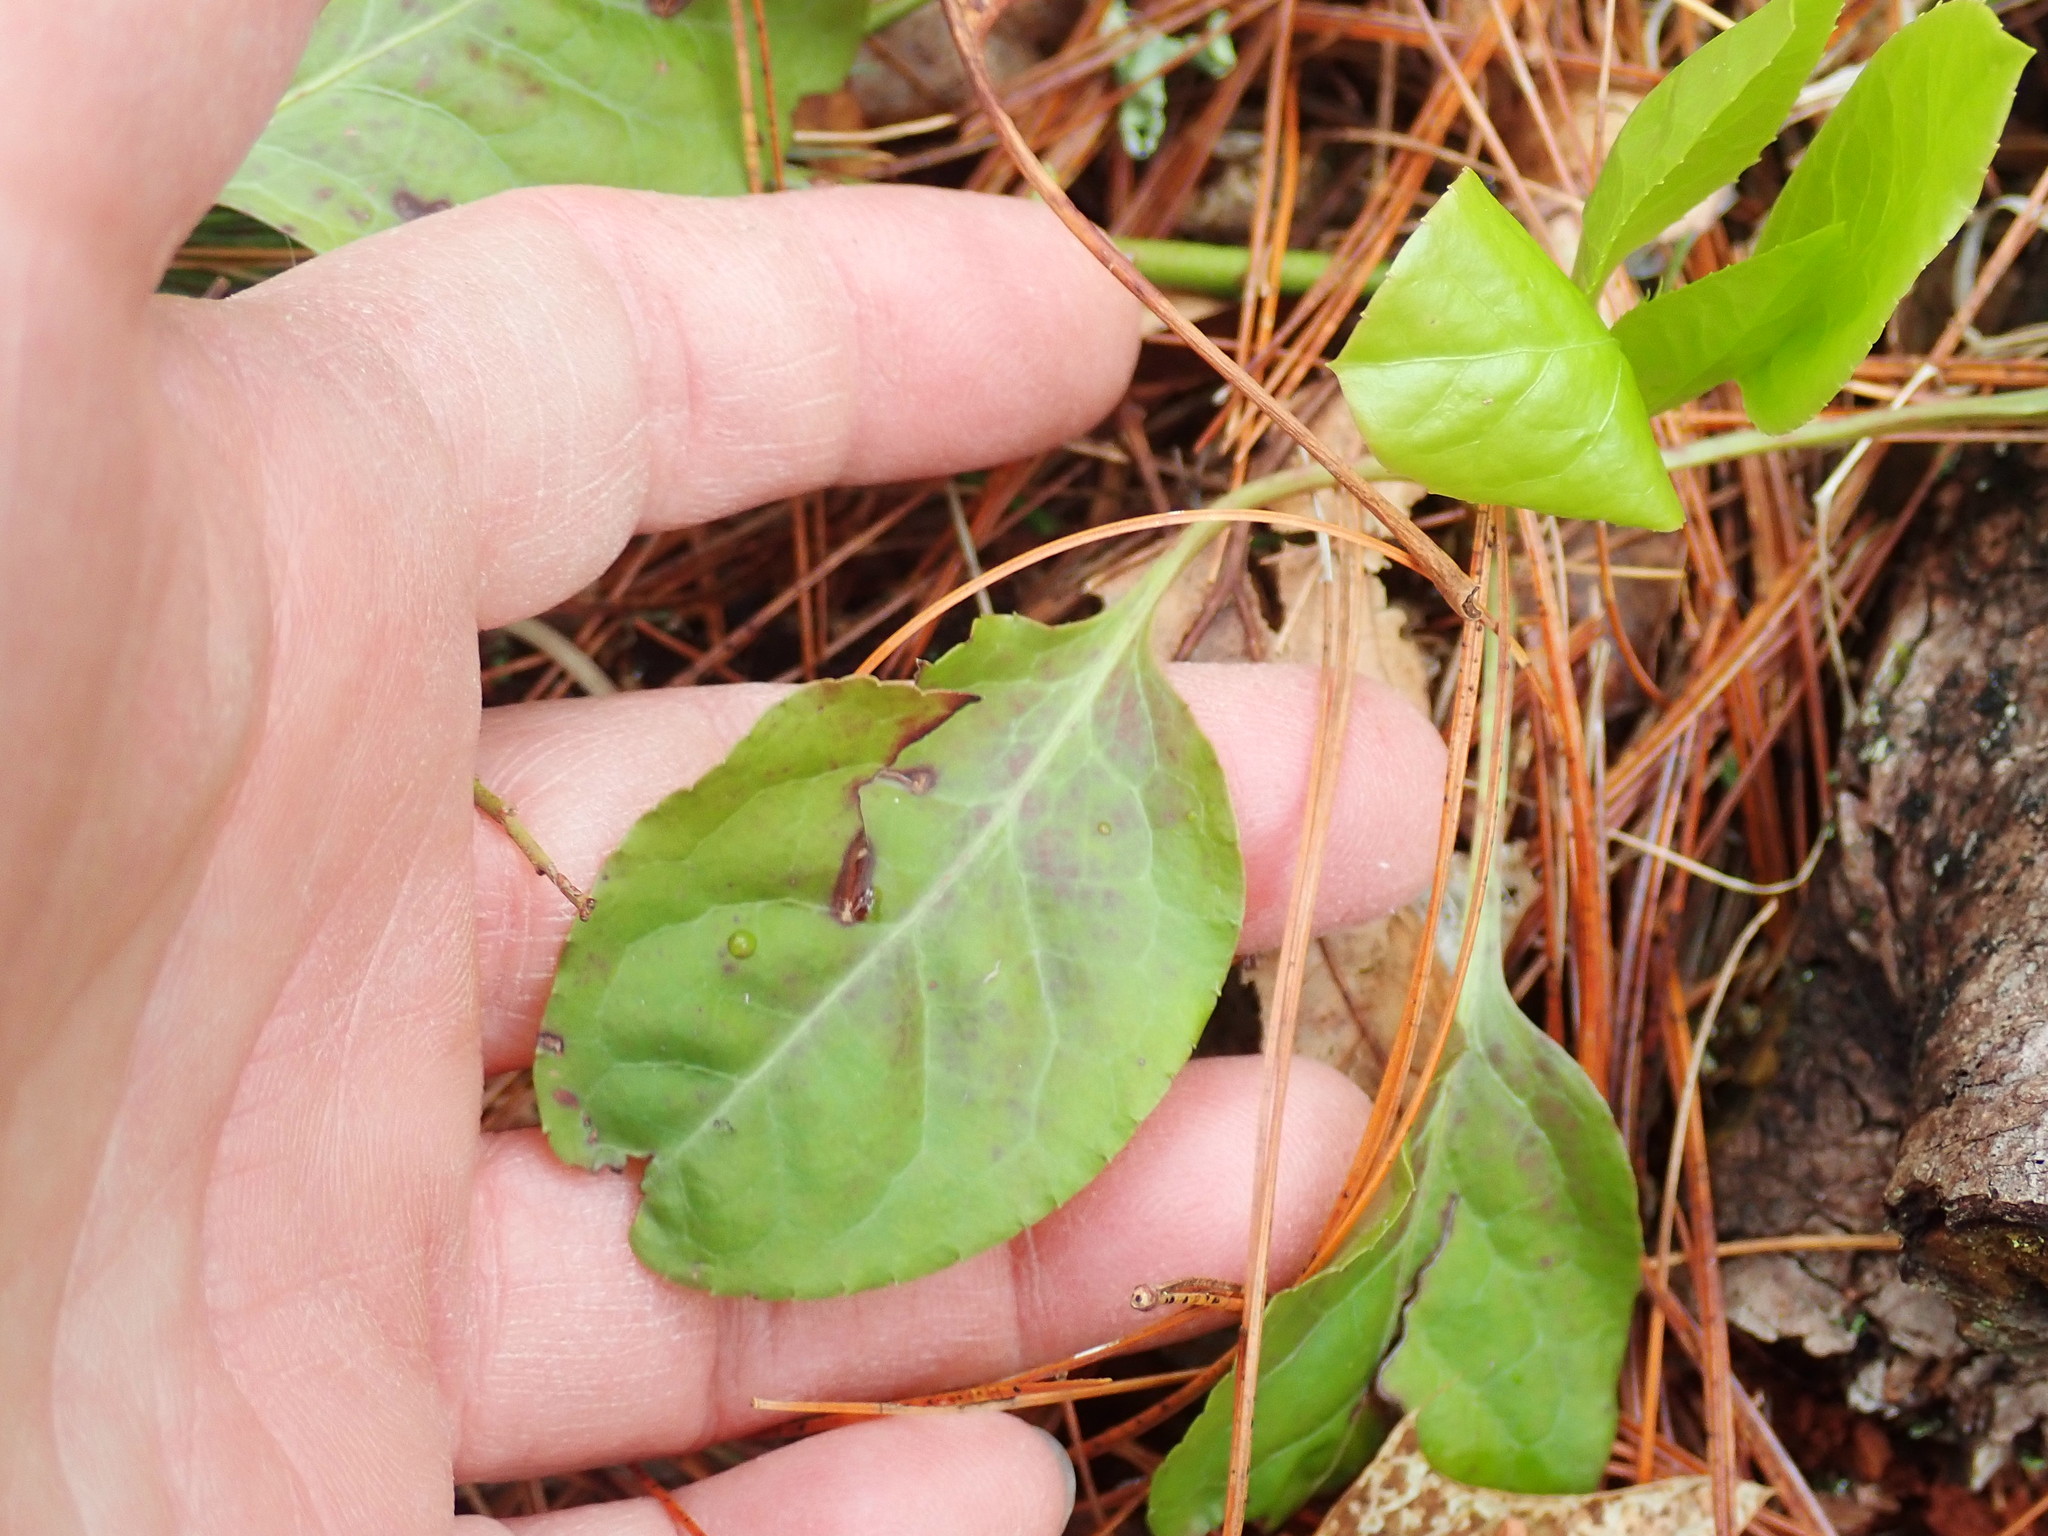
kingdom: Plantae
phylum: Tracheophyta
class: Magnoliopsida
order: Ericales
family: Ericaceae
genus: Pyrola
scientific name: Pyrola elliptica
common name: Shinleaf
